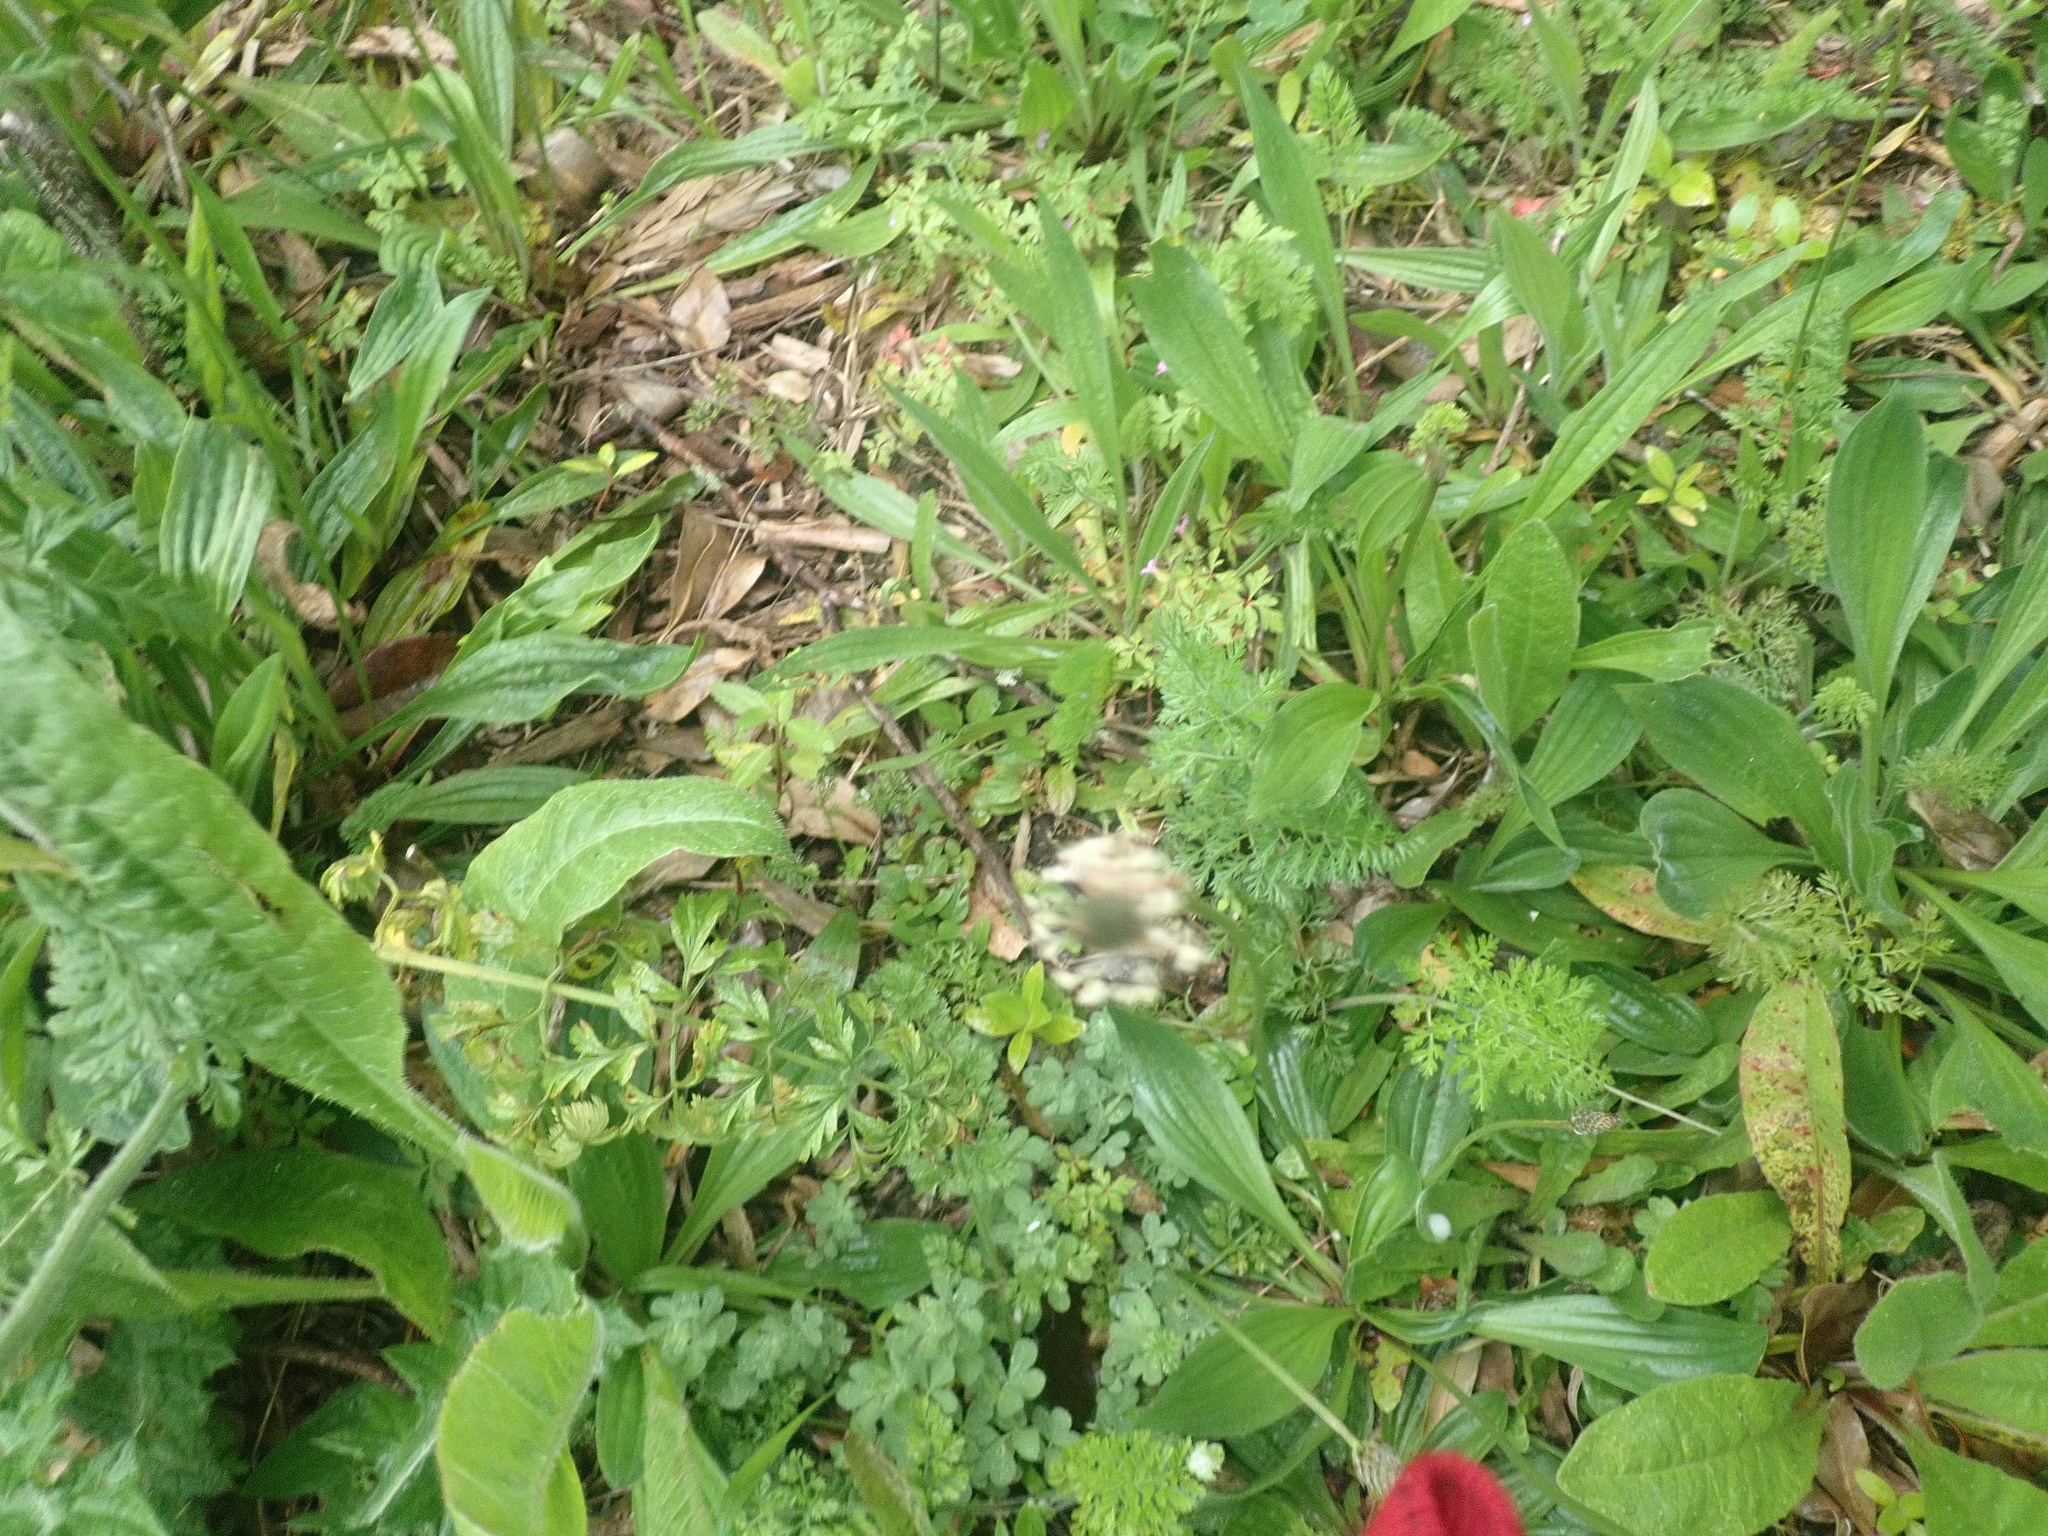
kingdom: Plantae
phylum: Tracheophyta
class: Magnoliopsida
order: Asterales
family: Asteraceae
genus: Helminthotheca
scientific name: Helminthotheca echioides
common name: Ox-tongue
